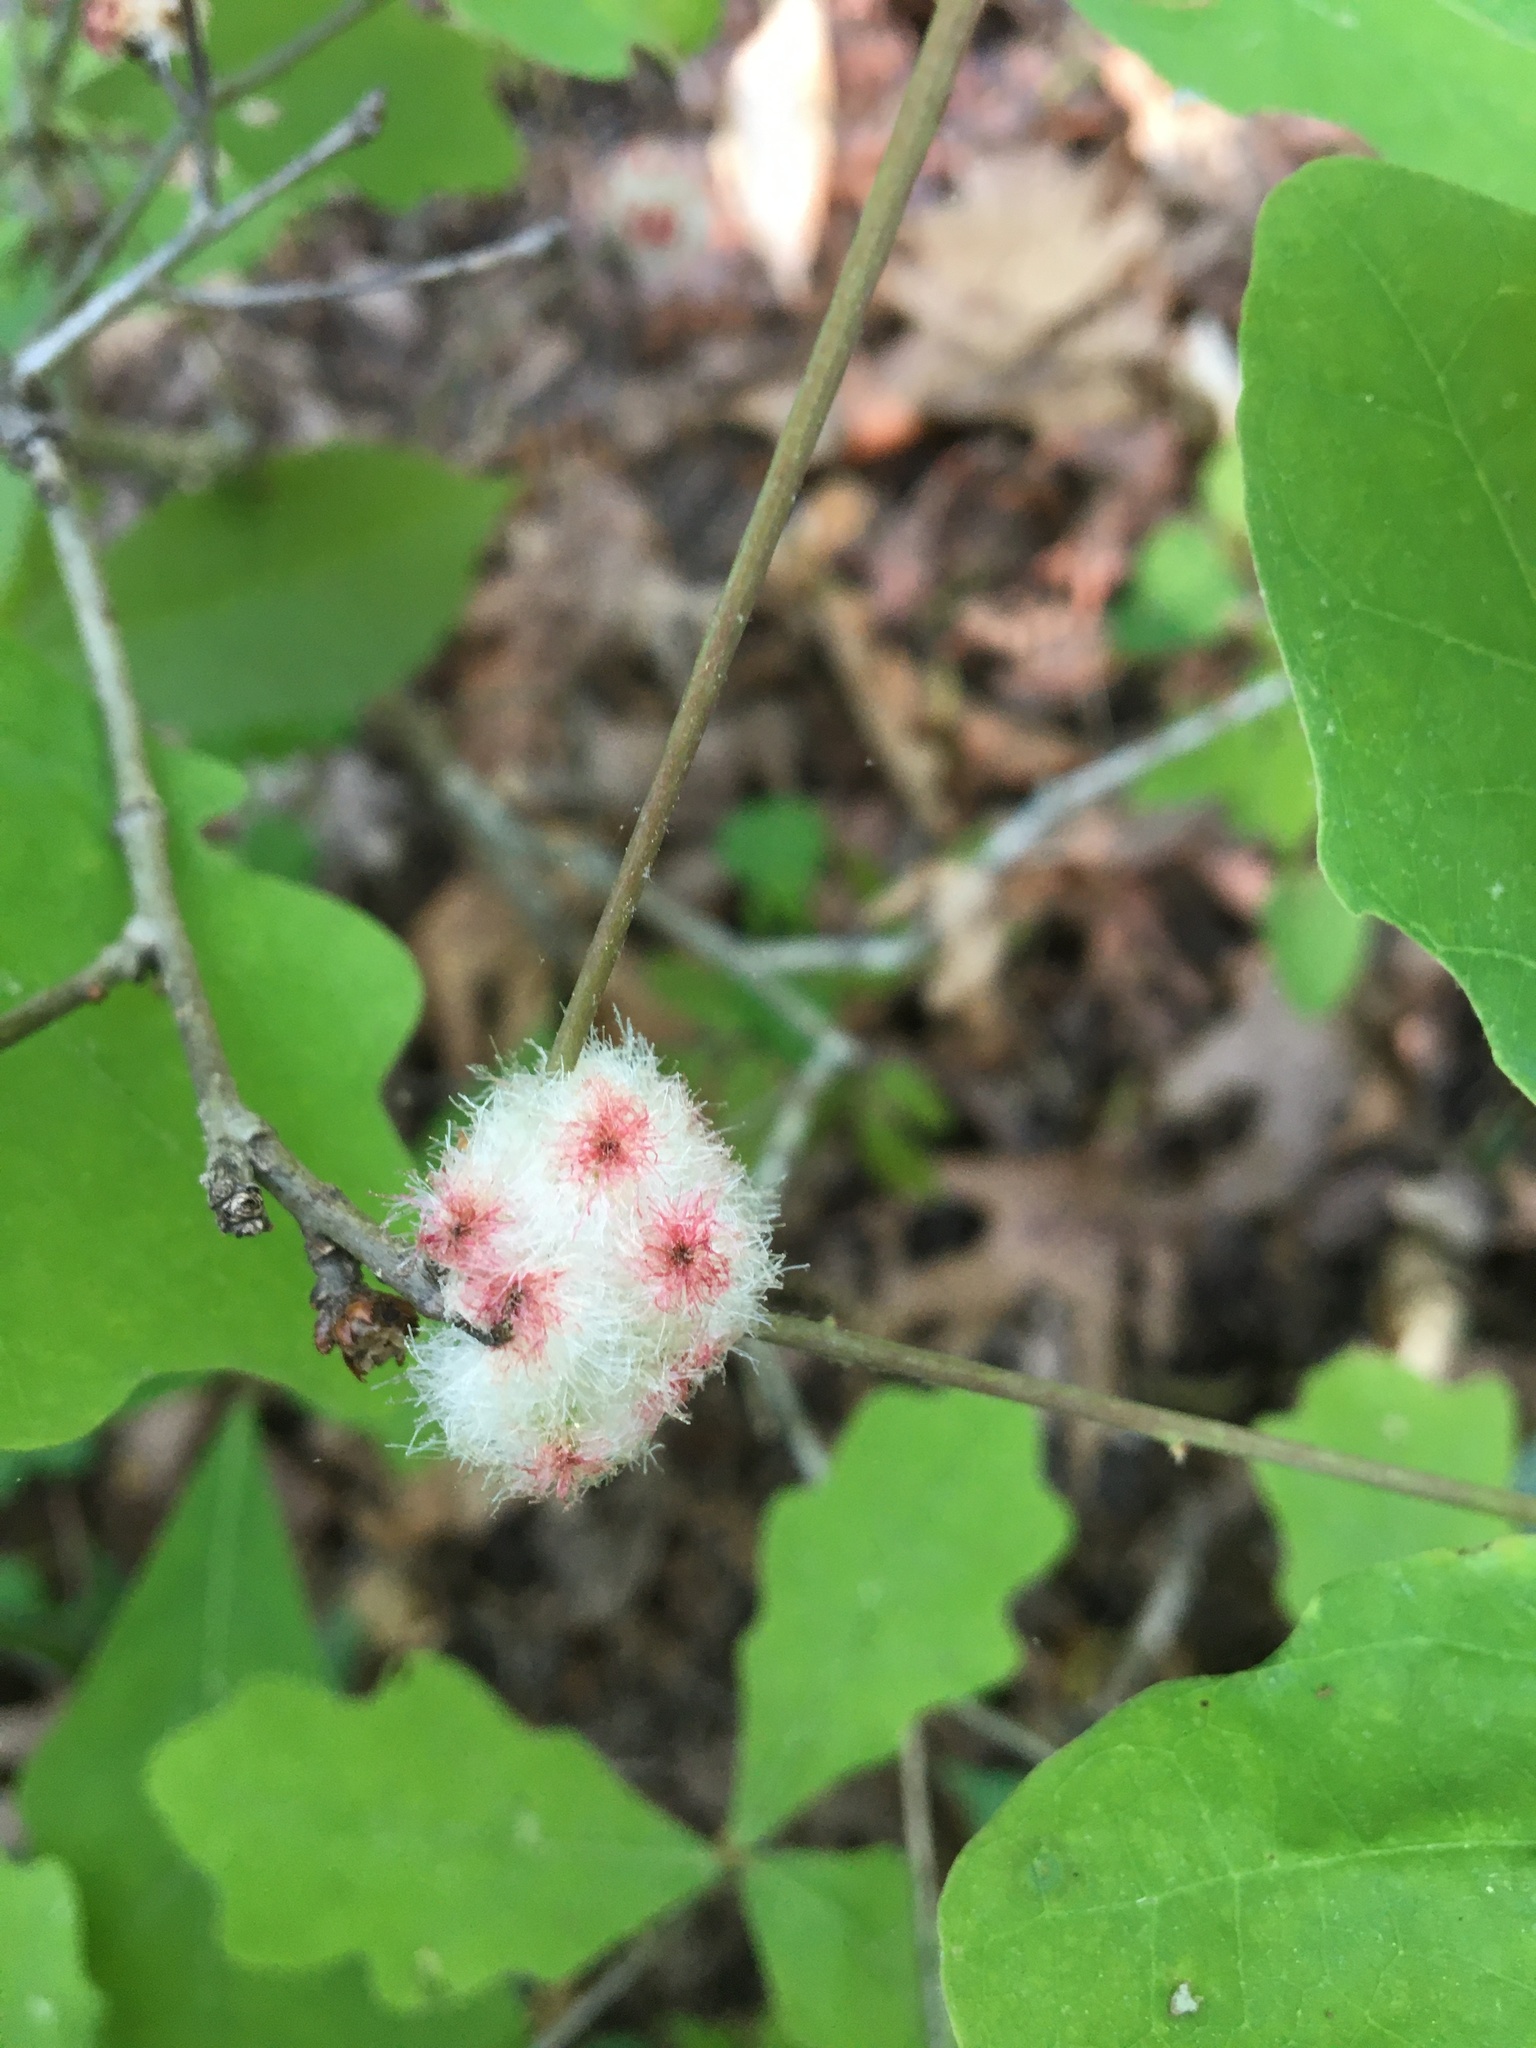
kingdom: Animalia
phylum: Arthropoda
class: Insecta
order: Hymenoptera
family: Cynipidae
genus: Callirhytis
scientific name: Callirhytis
